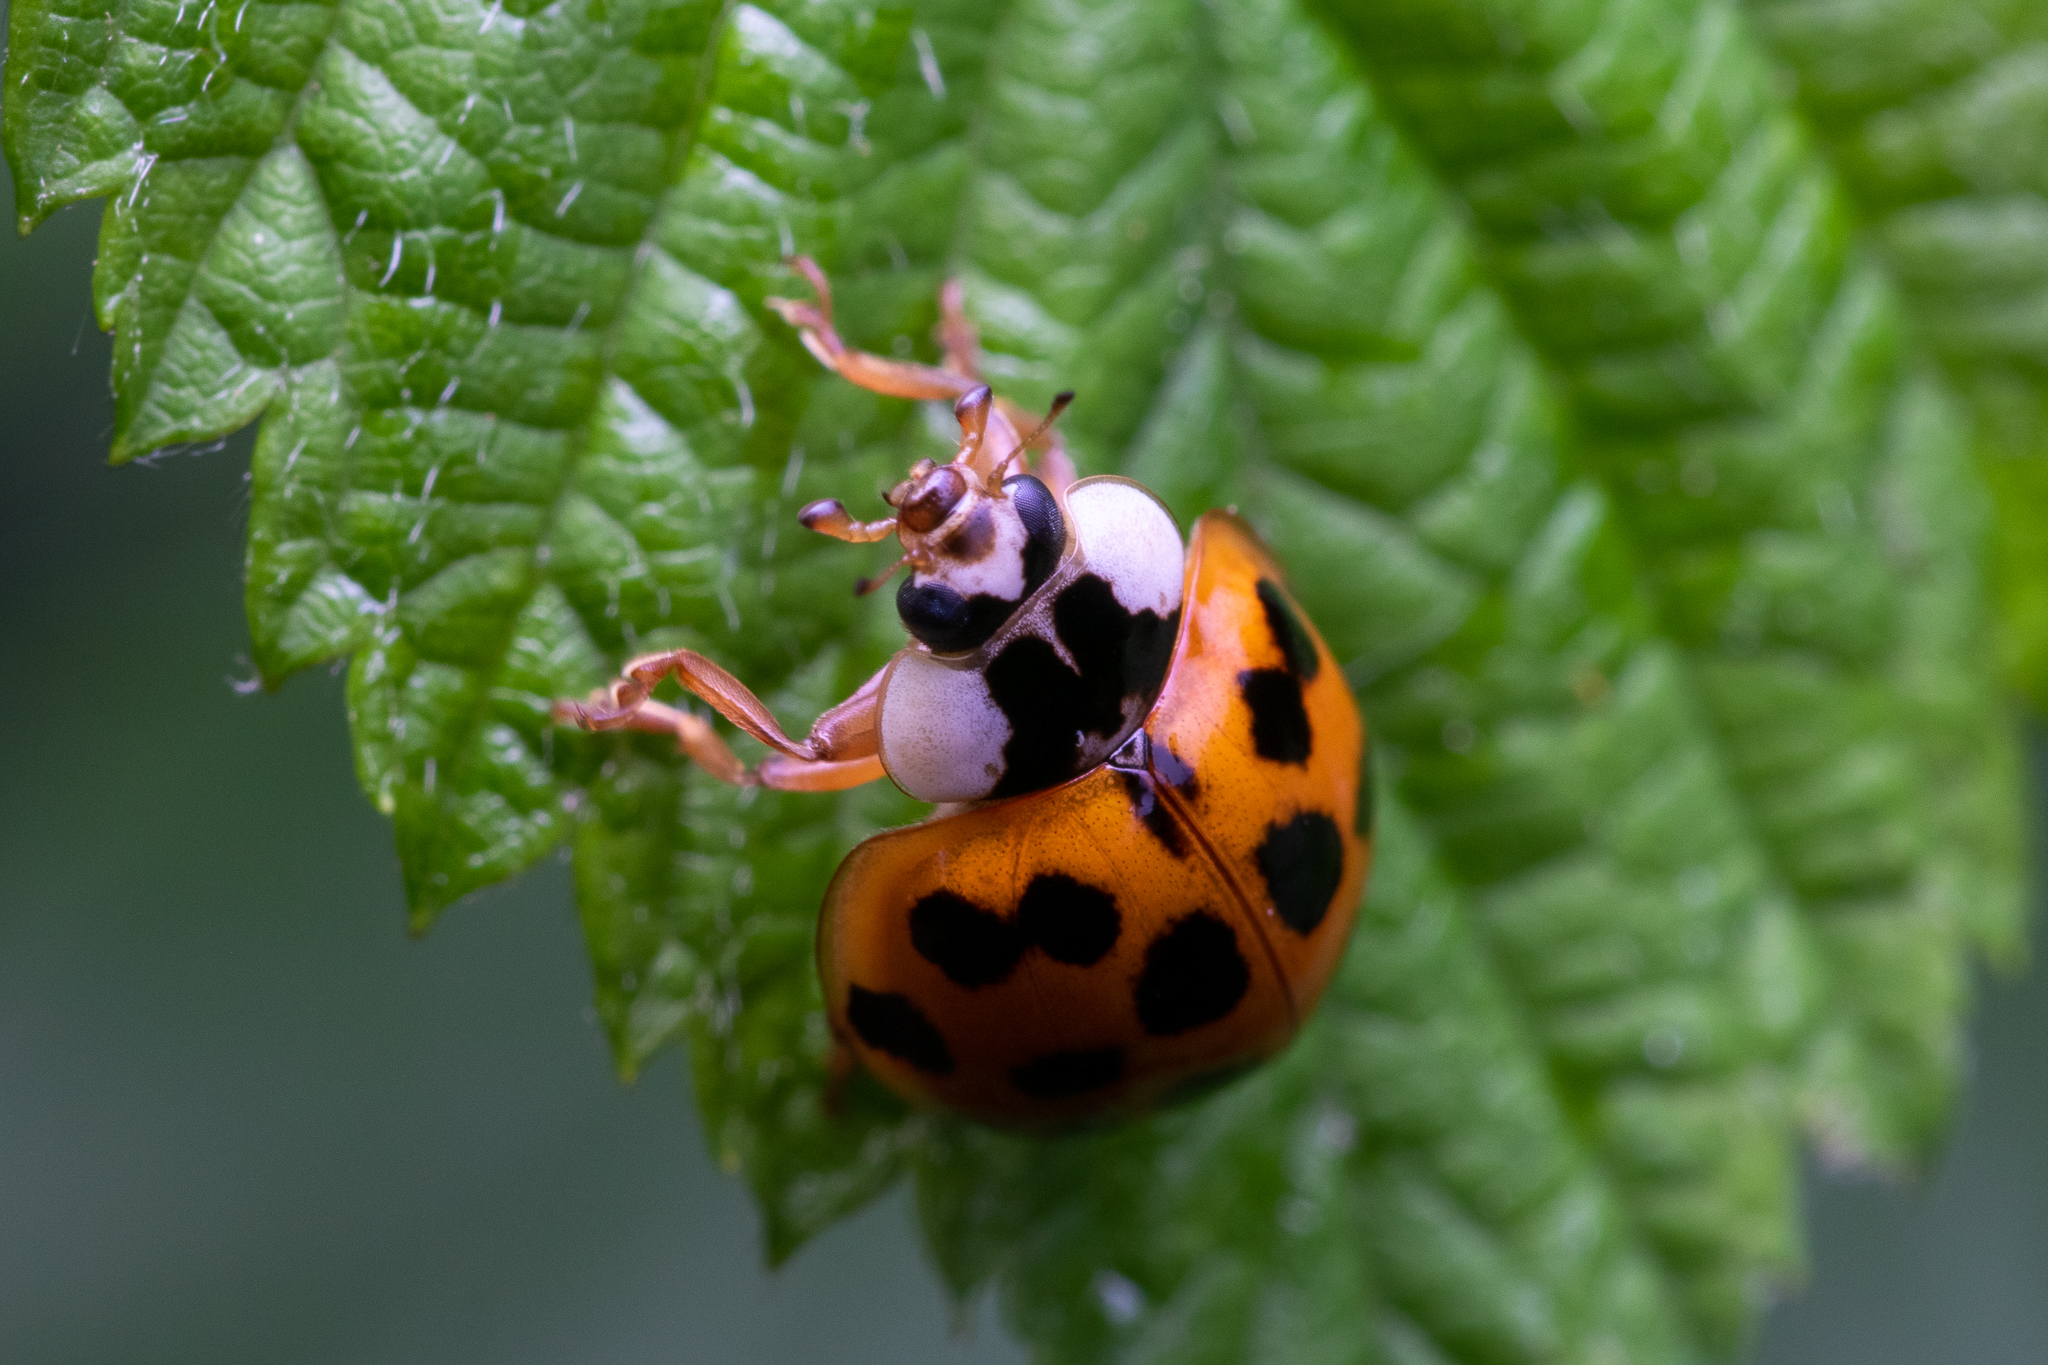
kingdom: Animalia
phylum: Arthropoda
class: Insecta
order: Coleoptera
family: Coccinellidae
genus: Harmonia
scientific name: Harmonia axyridis
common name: Harlequin ladybird
